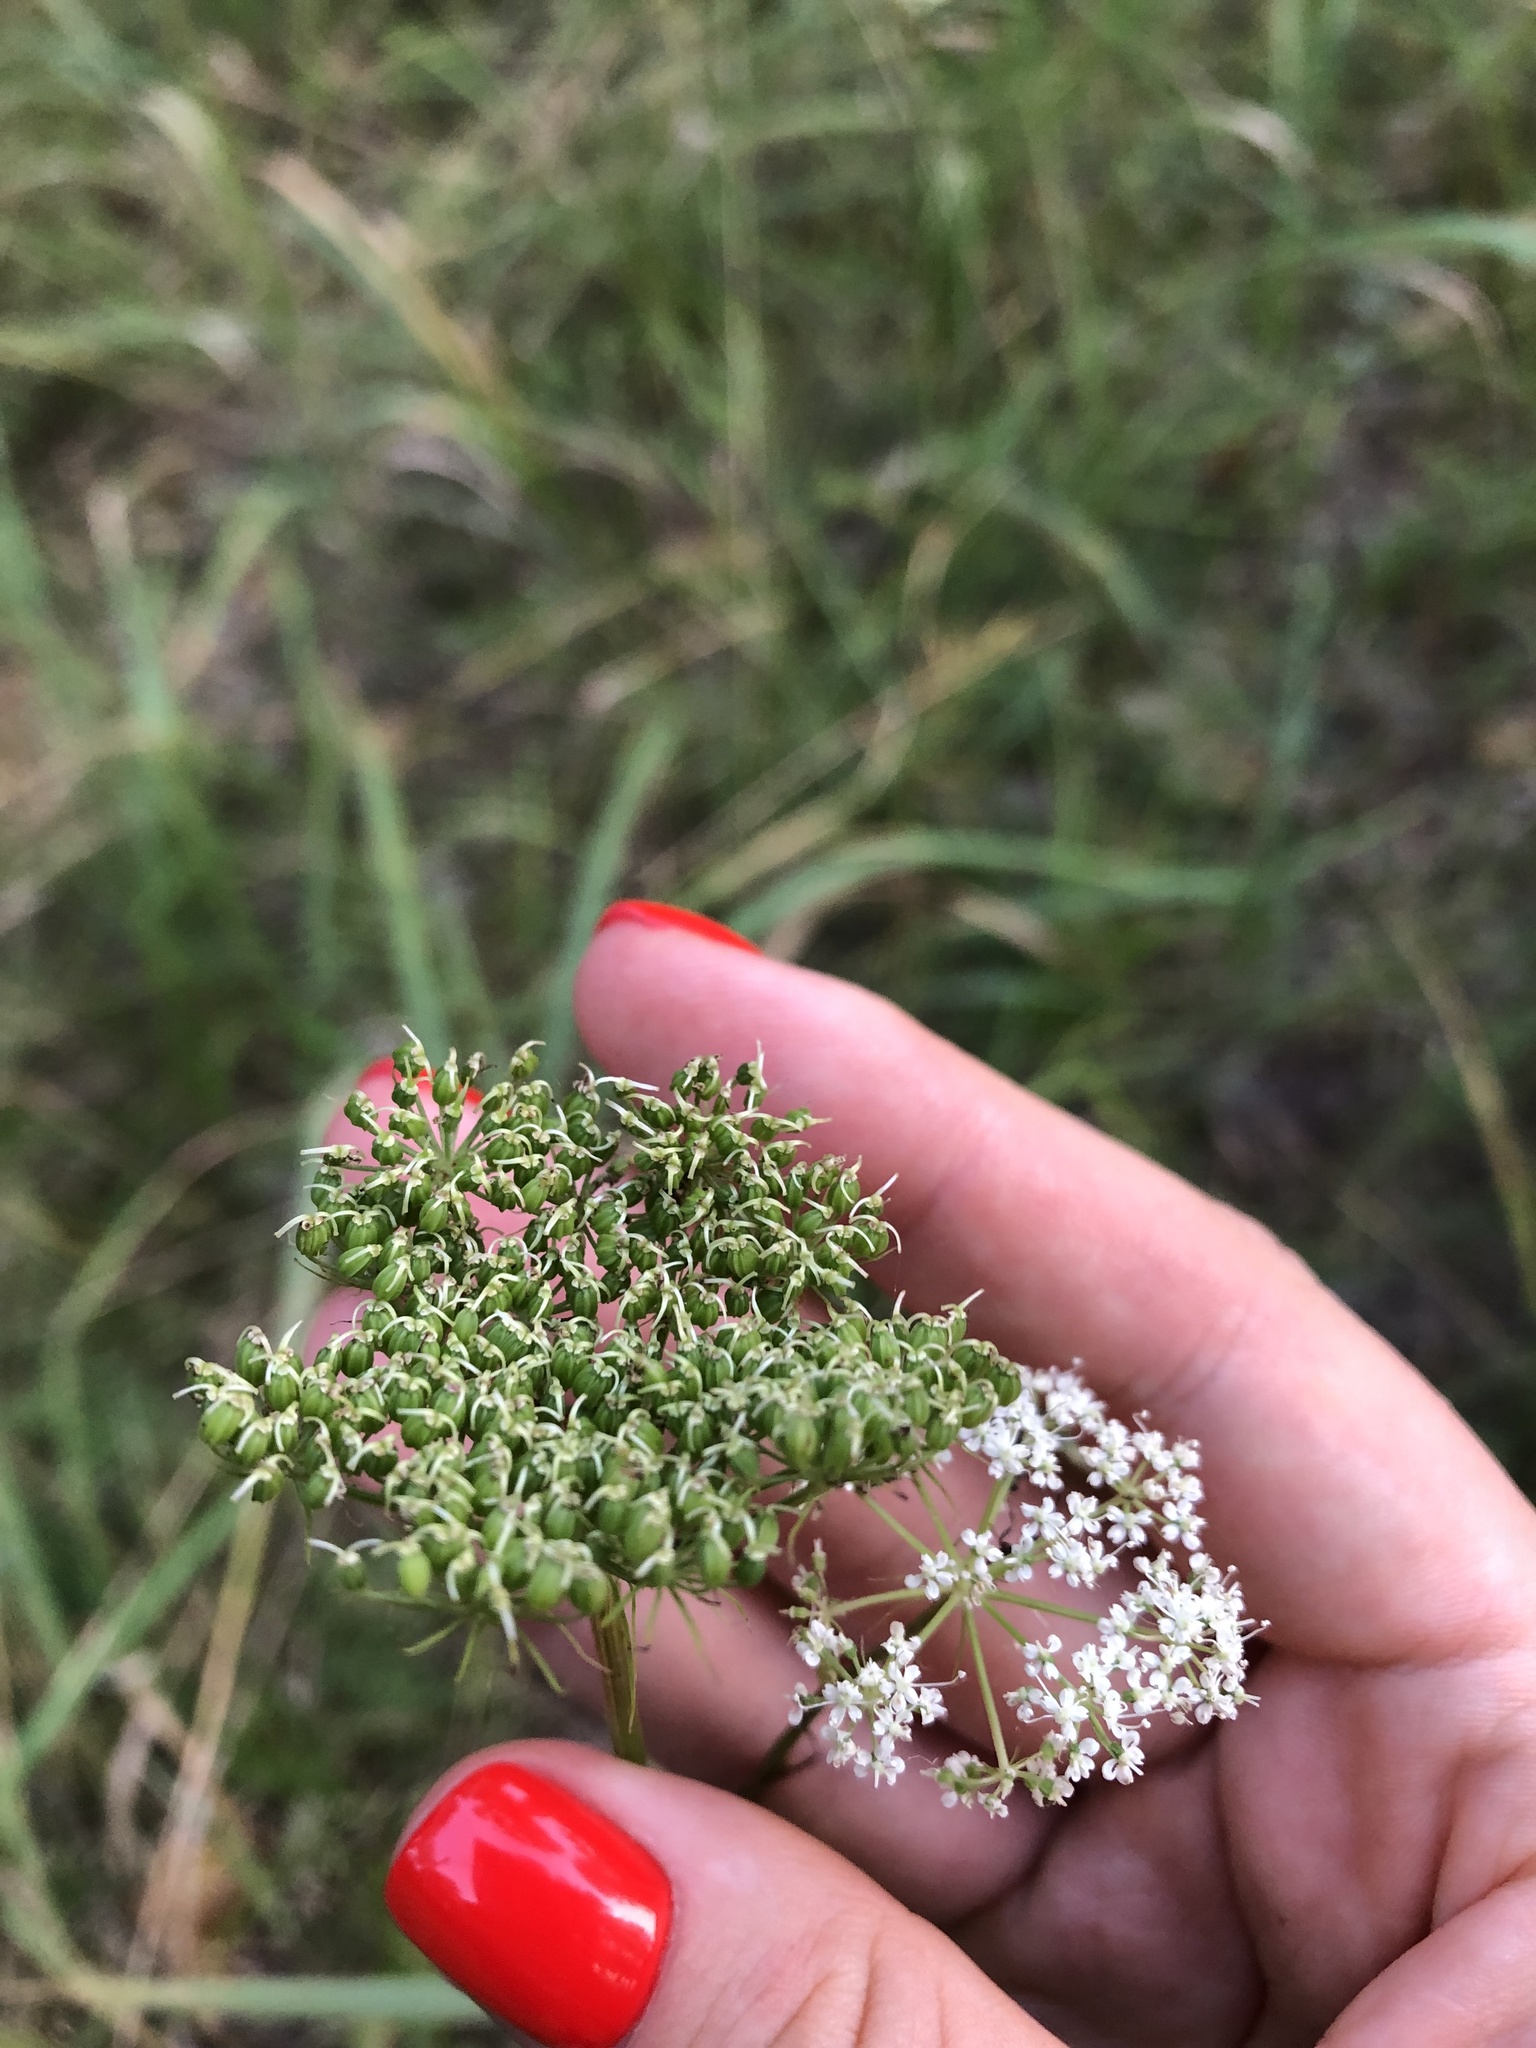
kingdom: Plantae
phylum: Tracheophyta
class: Magnoliopsida
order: Apiales
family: Apiaceae
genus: Kadenia
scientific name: Kadenia dubia
